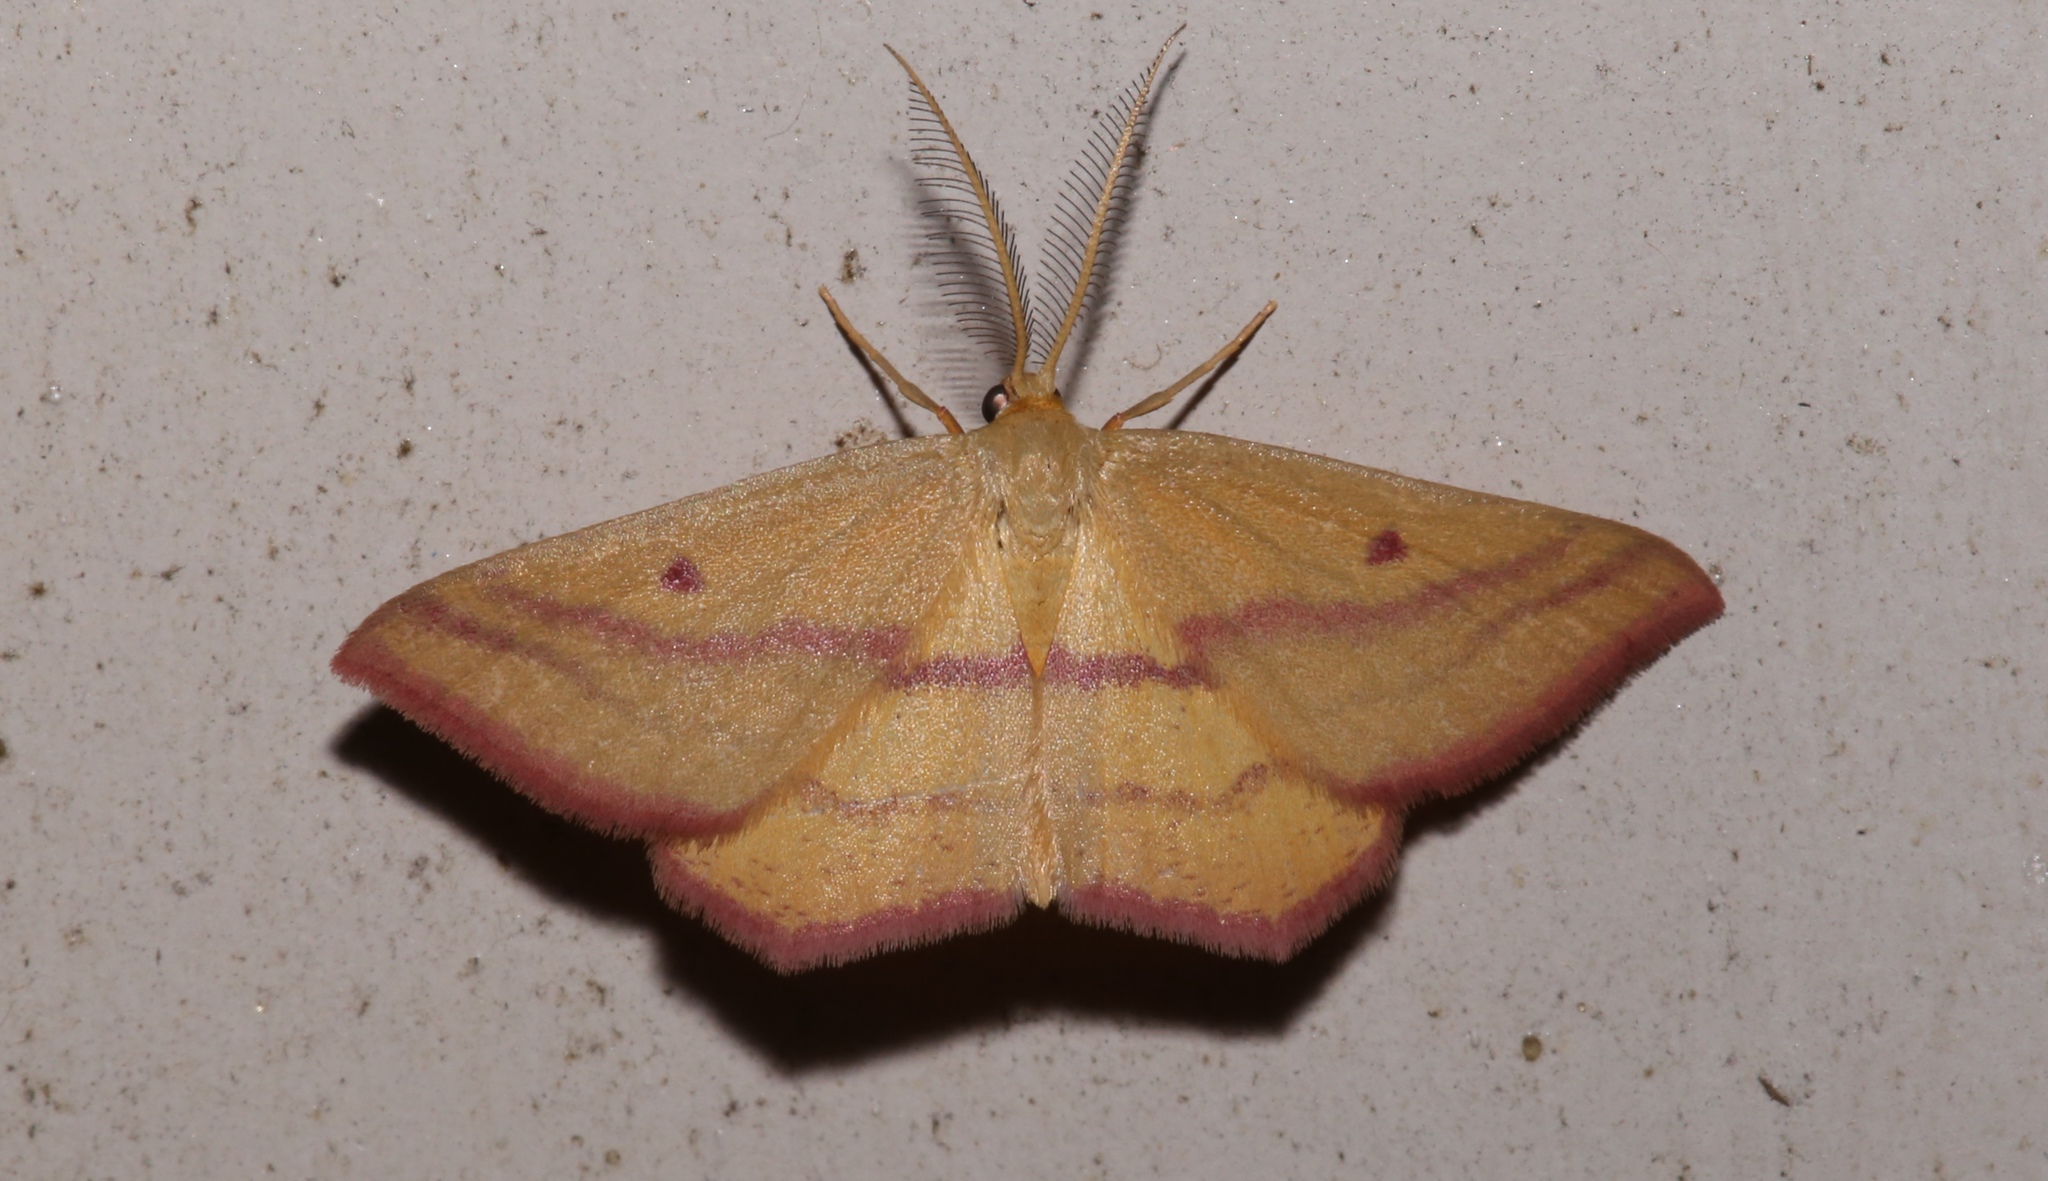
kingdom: Animalia
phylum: Arthropoda
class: Insecta
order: Lepidoptera
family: Geometridae
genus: Haematopis
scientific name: Haematopis grataria
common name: Chickweed geometer
